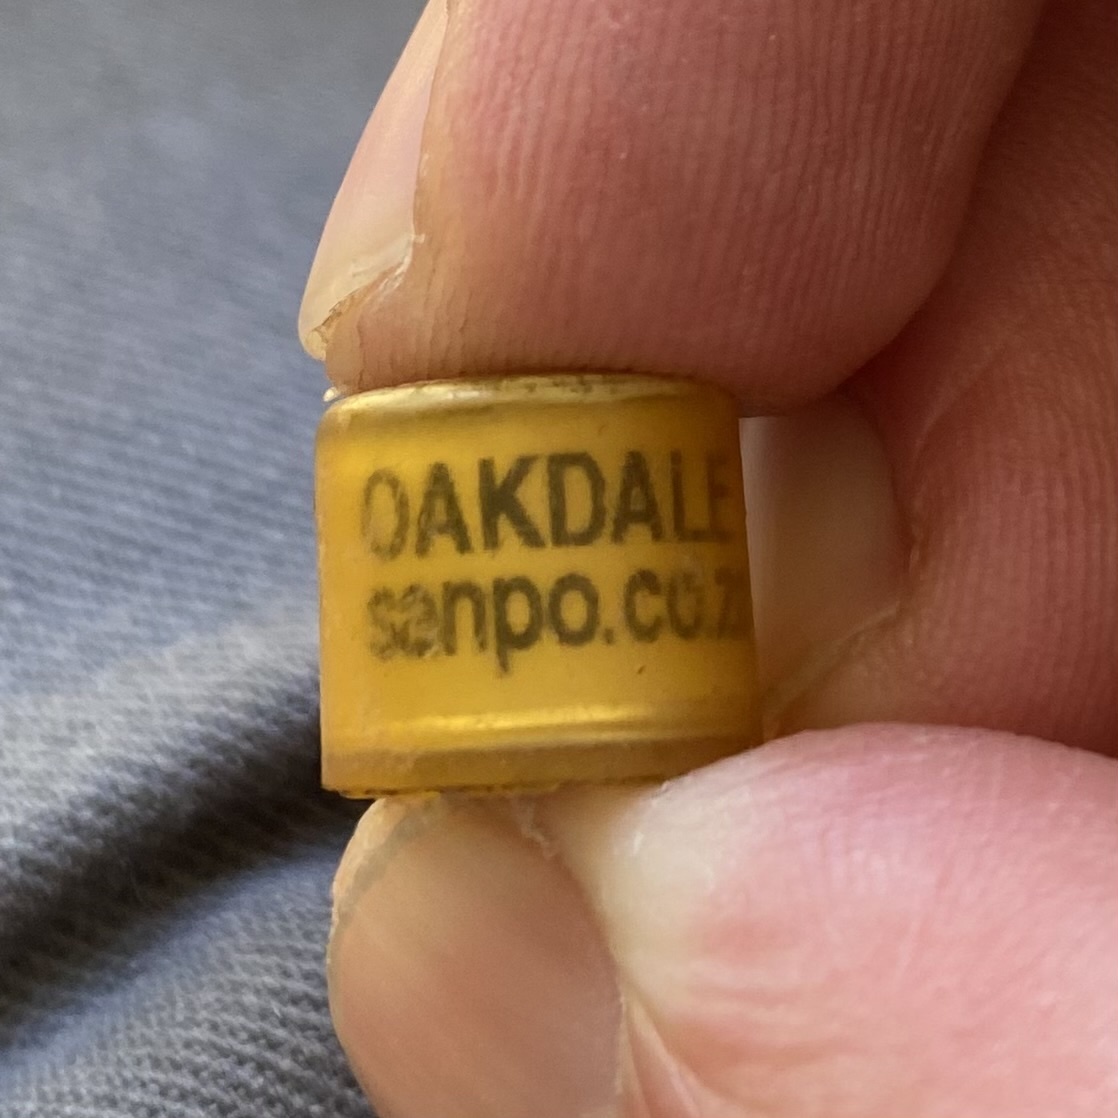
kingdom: Animalia
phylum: Chordata
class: Aves
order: Columbiformes
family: Columbidae
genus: Columba
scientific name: Columba livia
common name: Rock pigeon
